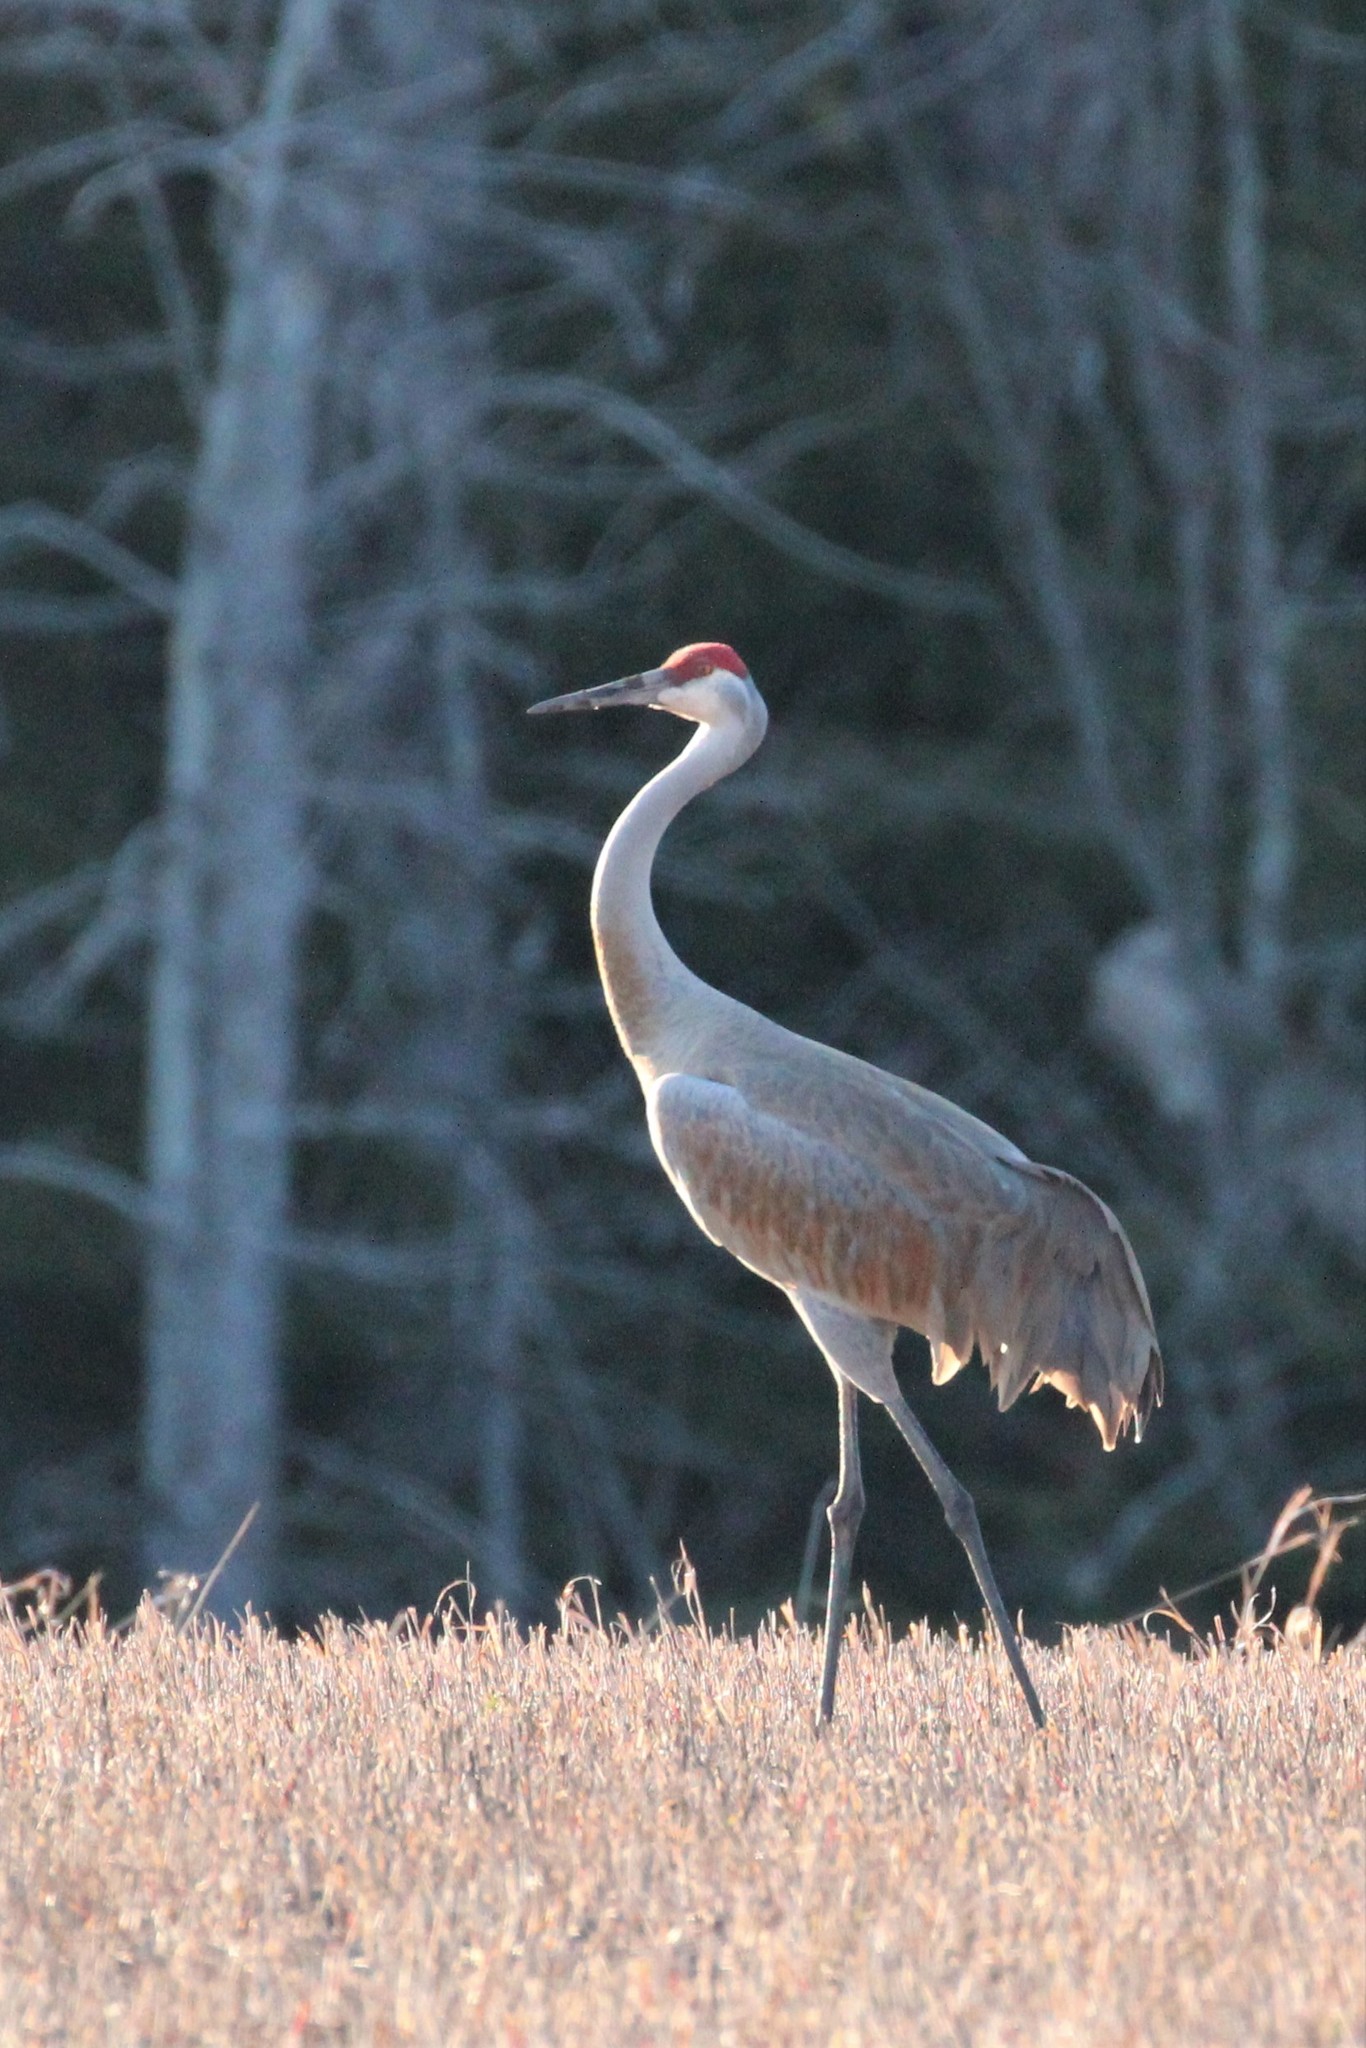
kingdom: Animalia
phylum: Chordata
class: Aves
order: Gruiformes
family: Gruidae
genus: Grus
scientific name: Grus canadensis
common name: Sandhill crane
